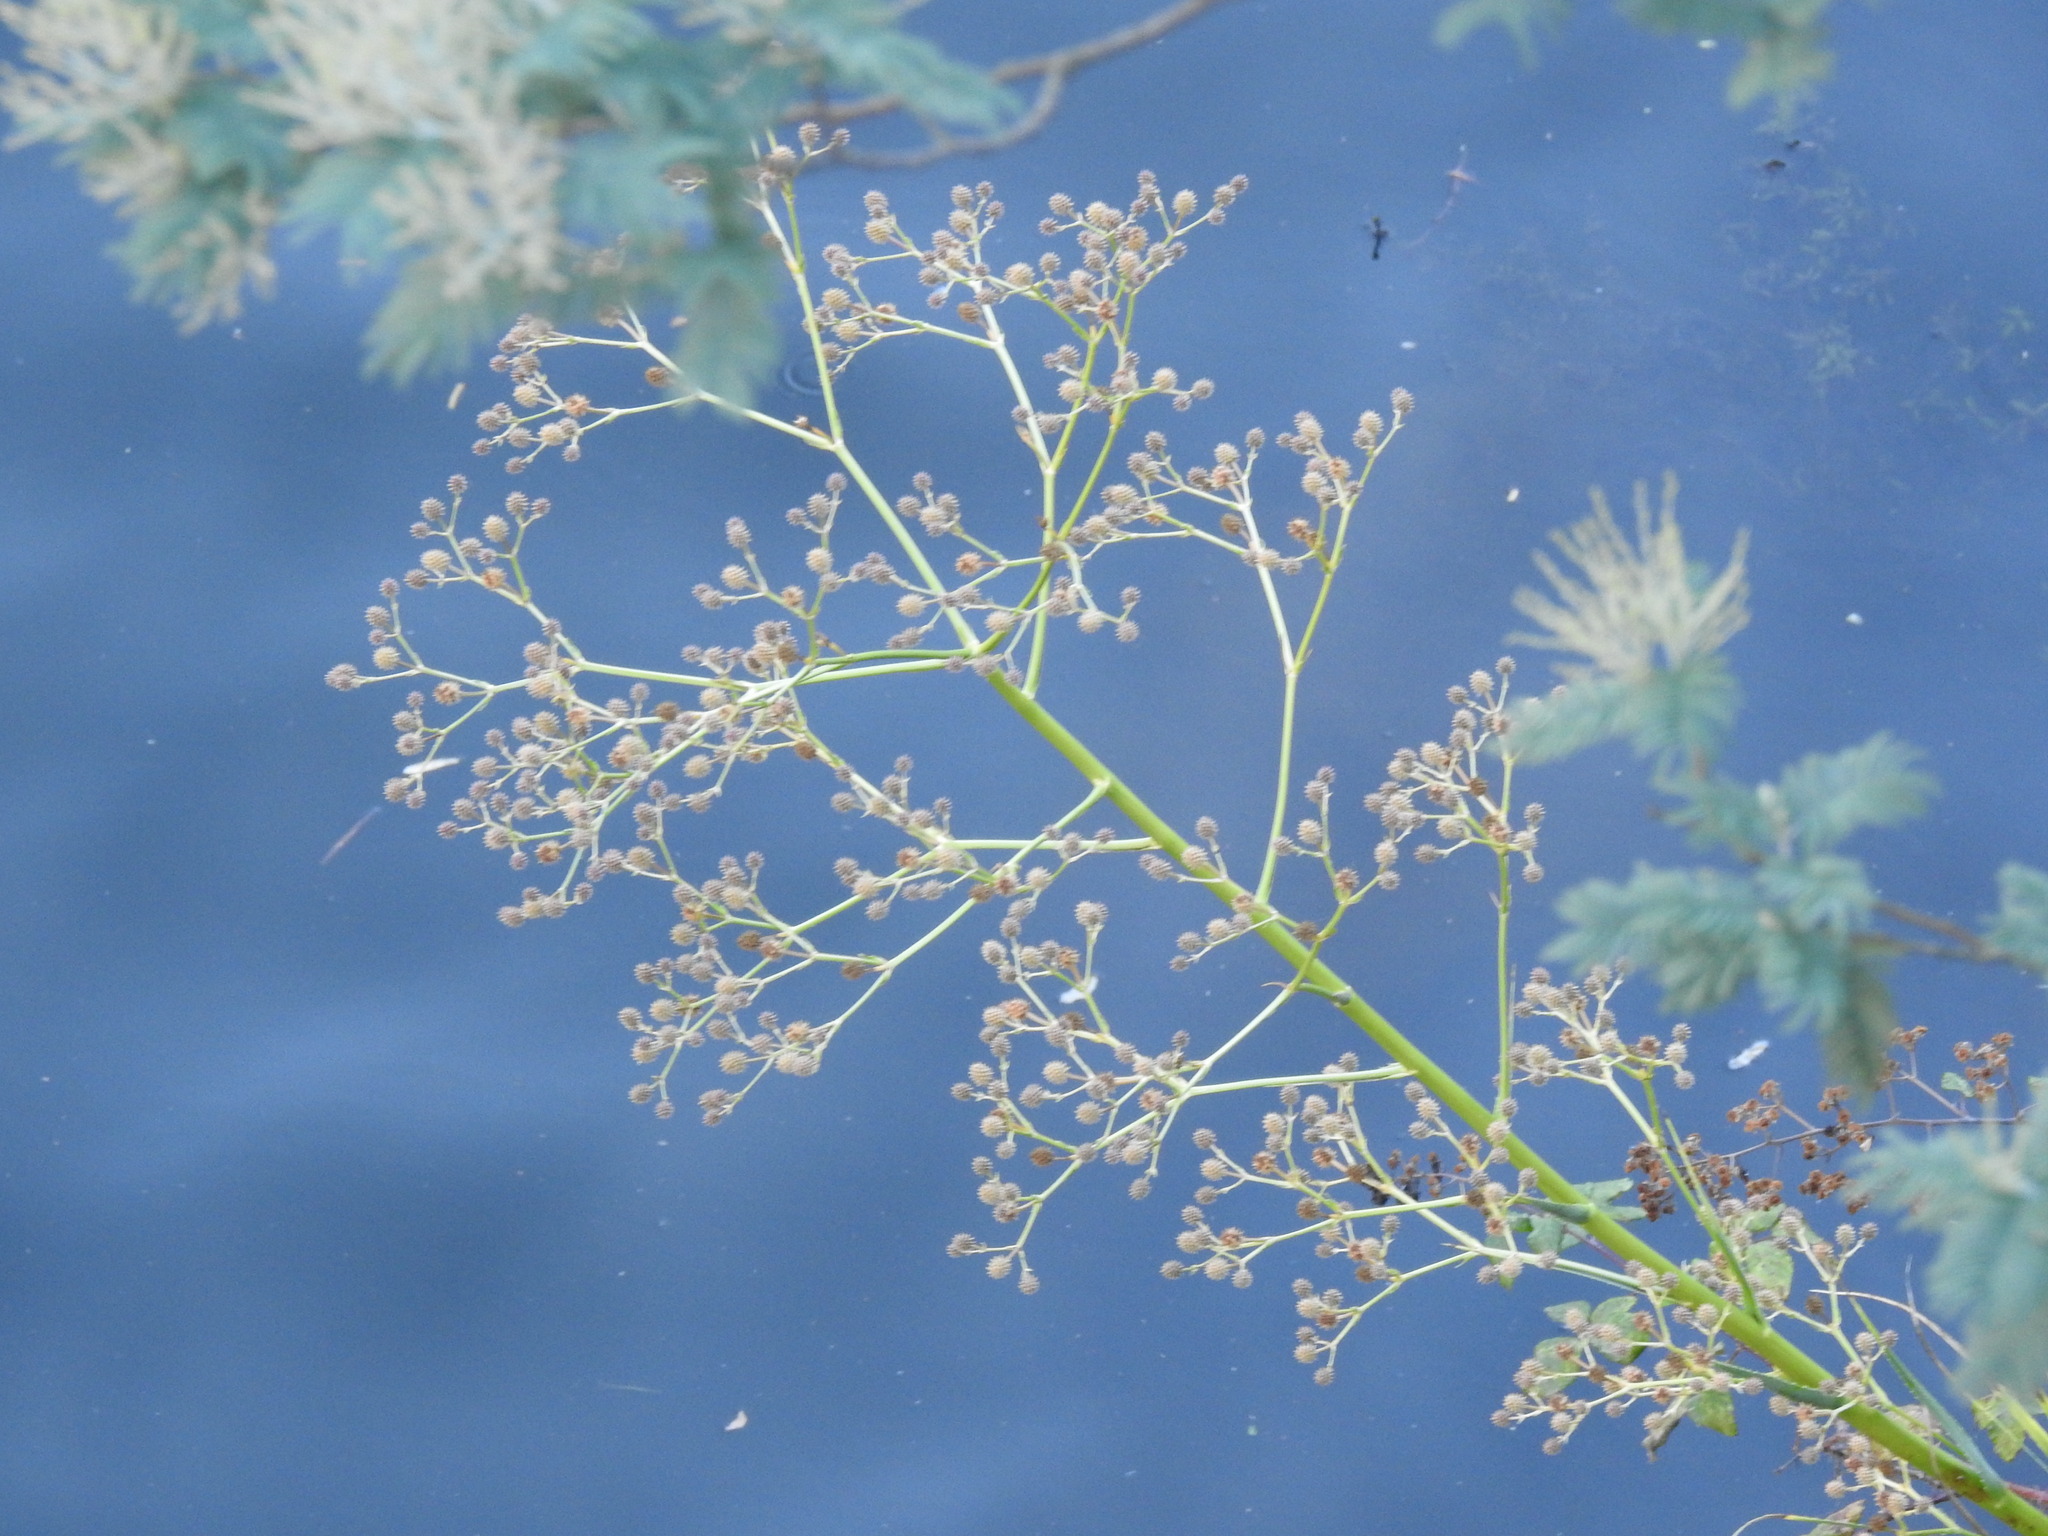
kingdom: Plantae
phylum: Tracheophyta
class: Magnoliopsida
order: Apiales
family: Apiaceae
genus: Eryngium
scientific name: Eryngium pandanifolium
